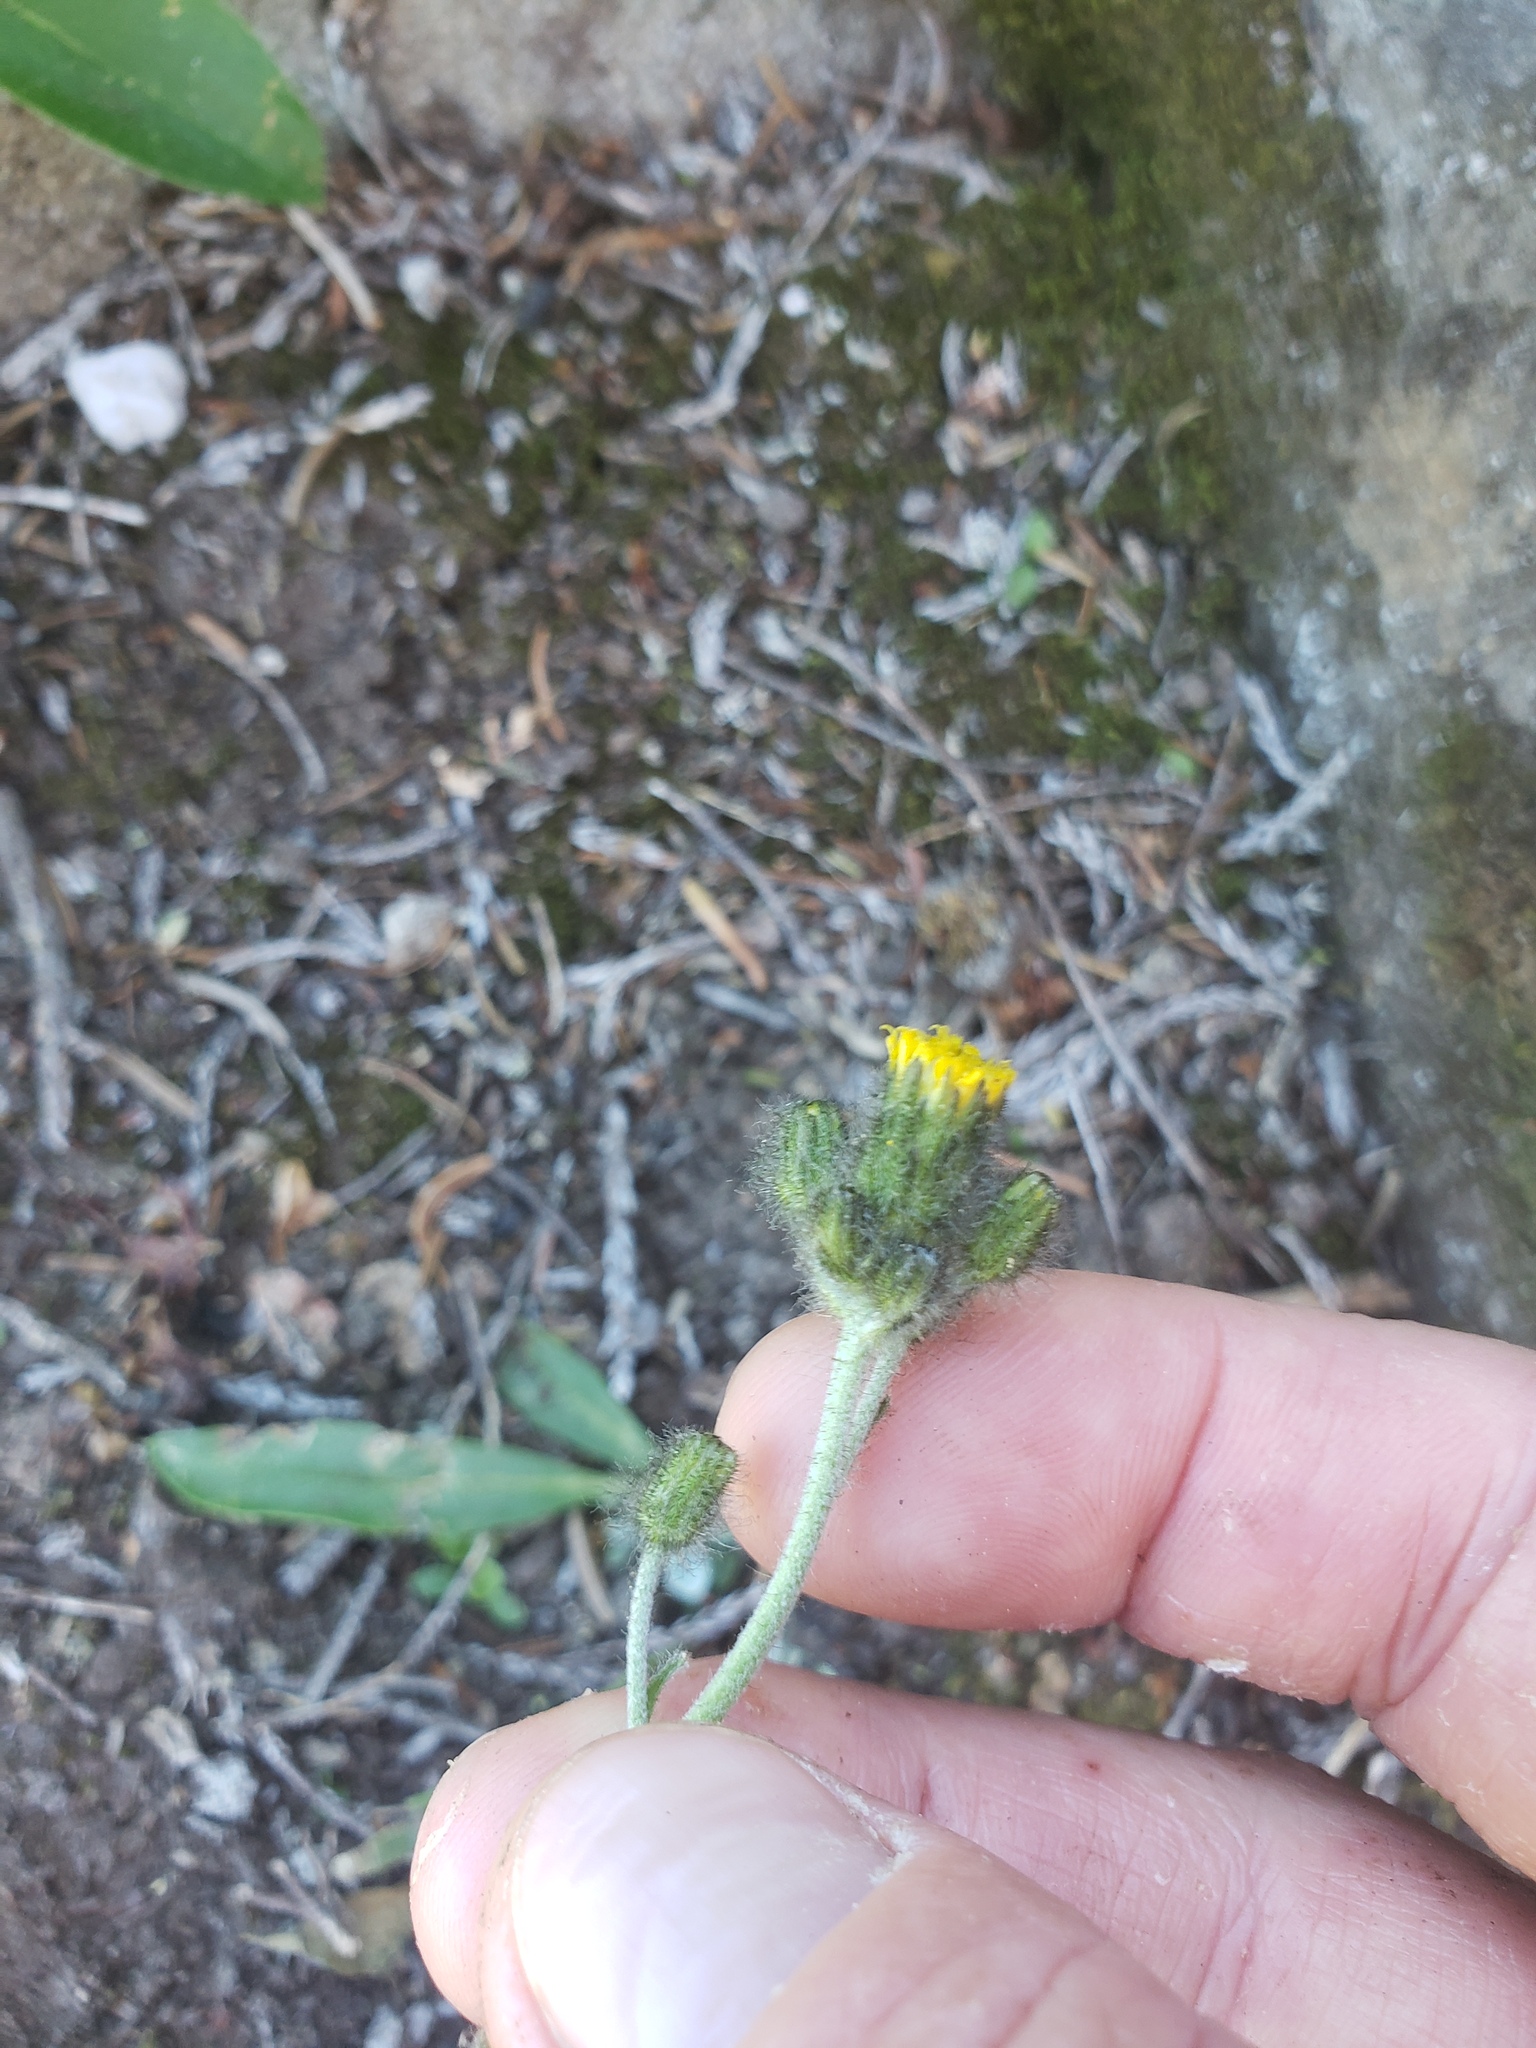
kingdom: Plantae
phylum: Tracheophyta
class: Magnoliopsida
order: Asterales
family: Asteraceae
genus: Hieracium
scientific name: Hieracium triste
